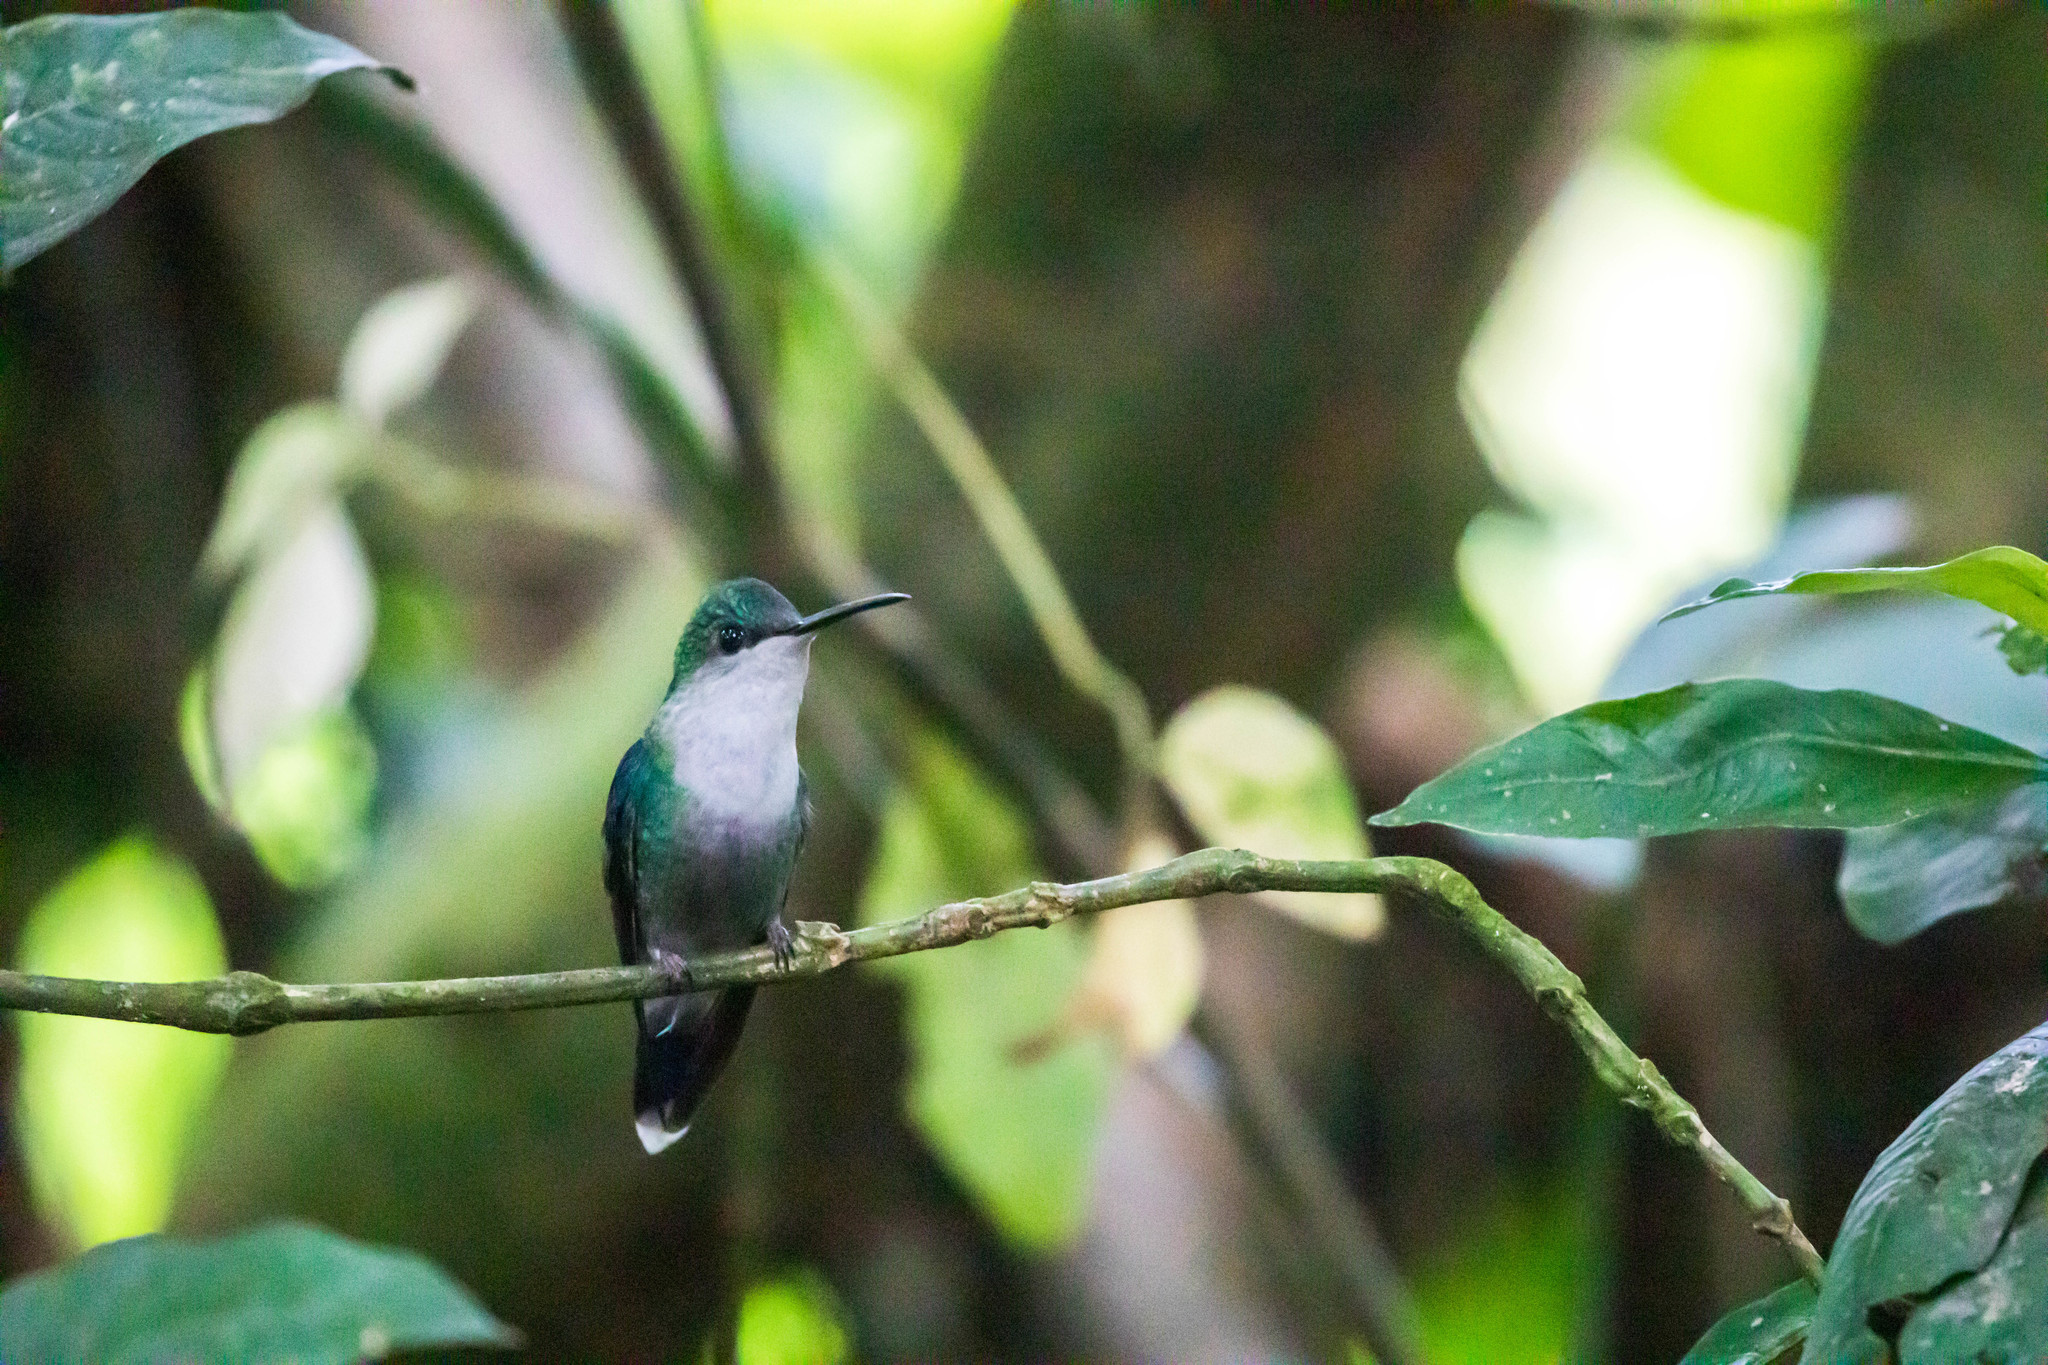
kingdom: Animalia
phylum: Chordata
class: Aves
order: Apodiformes
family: Trochilidae
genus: Thalurania
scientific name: Thalurania colombica
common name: Crowned woodnymph
